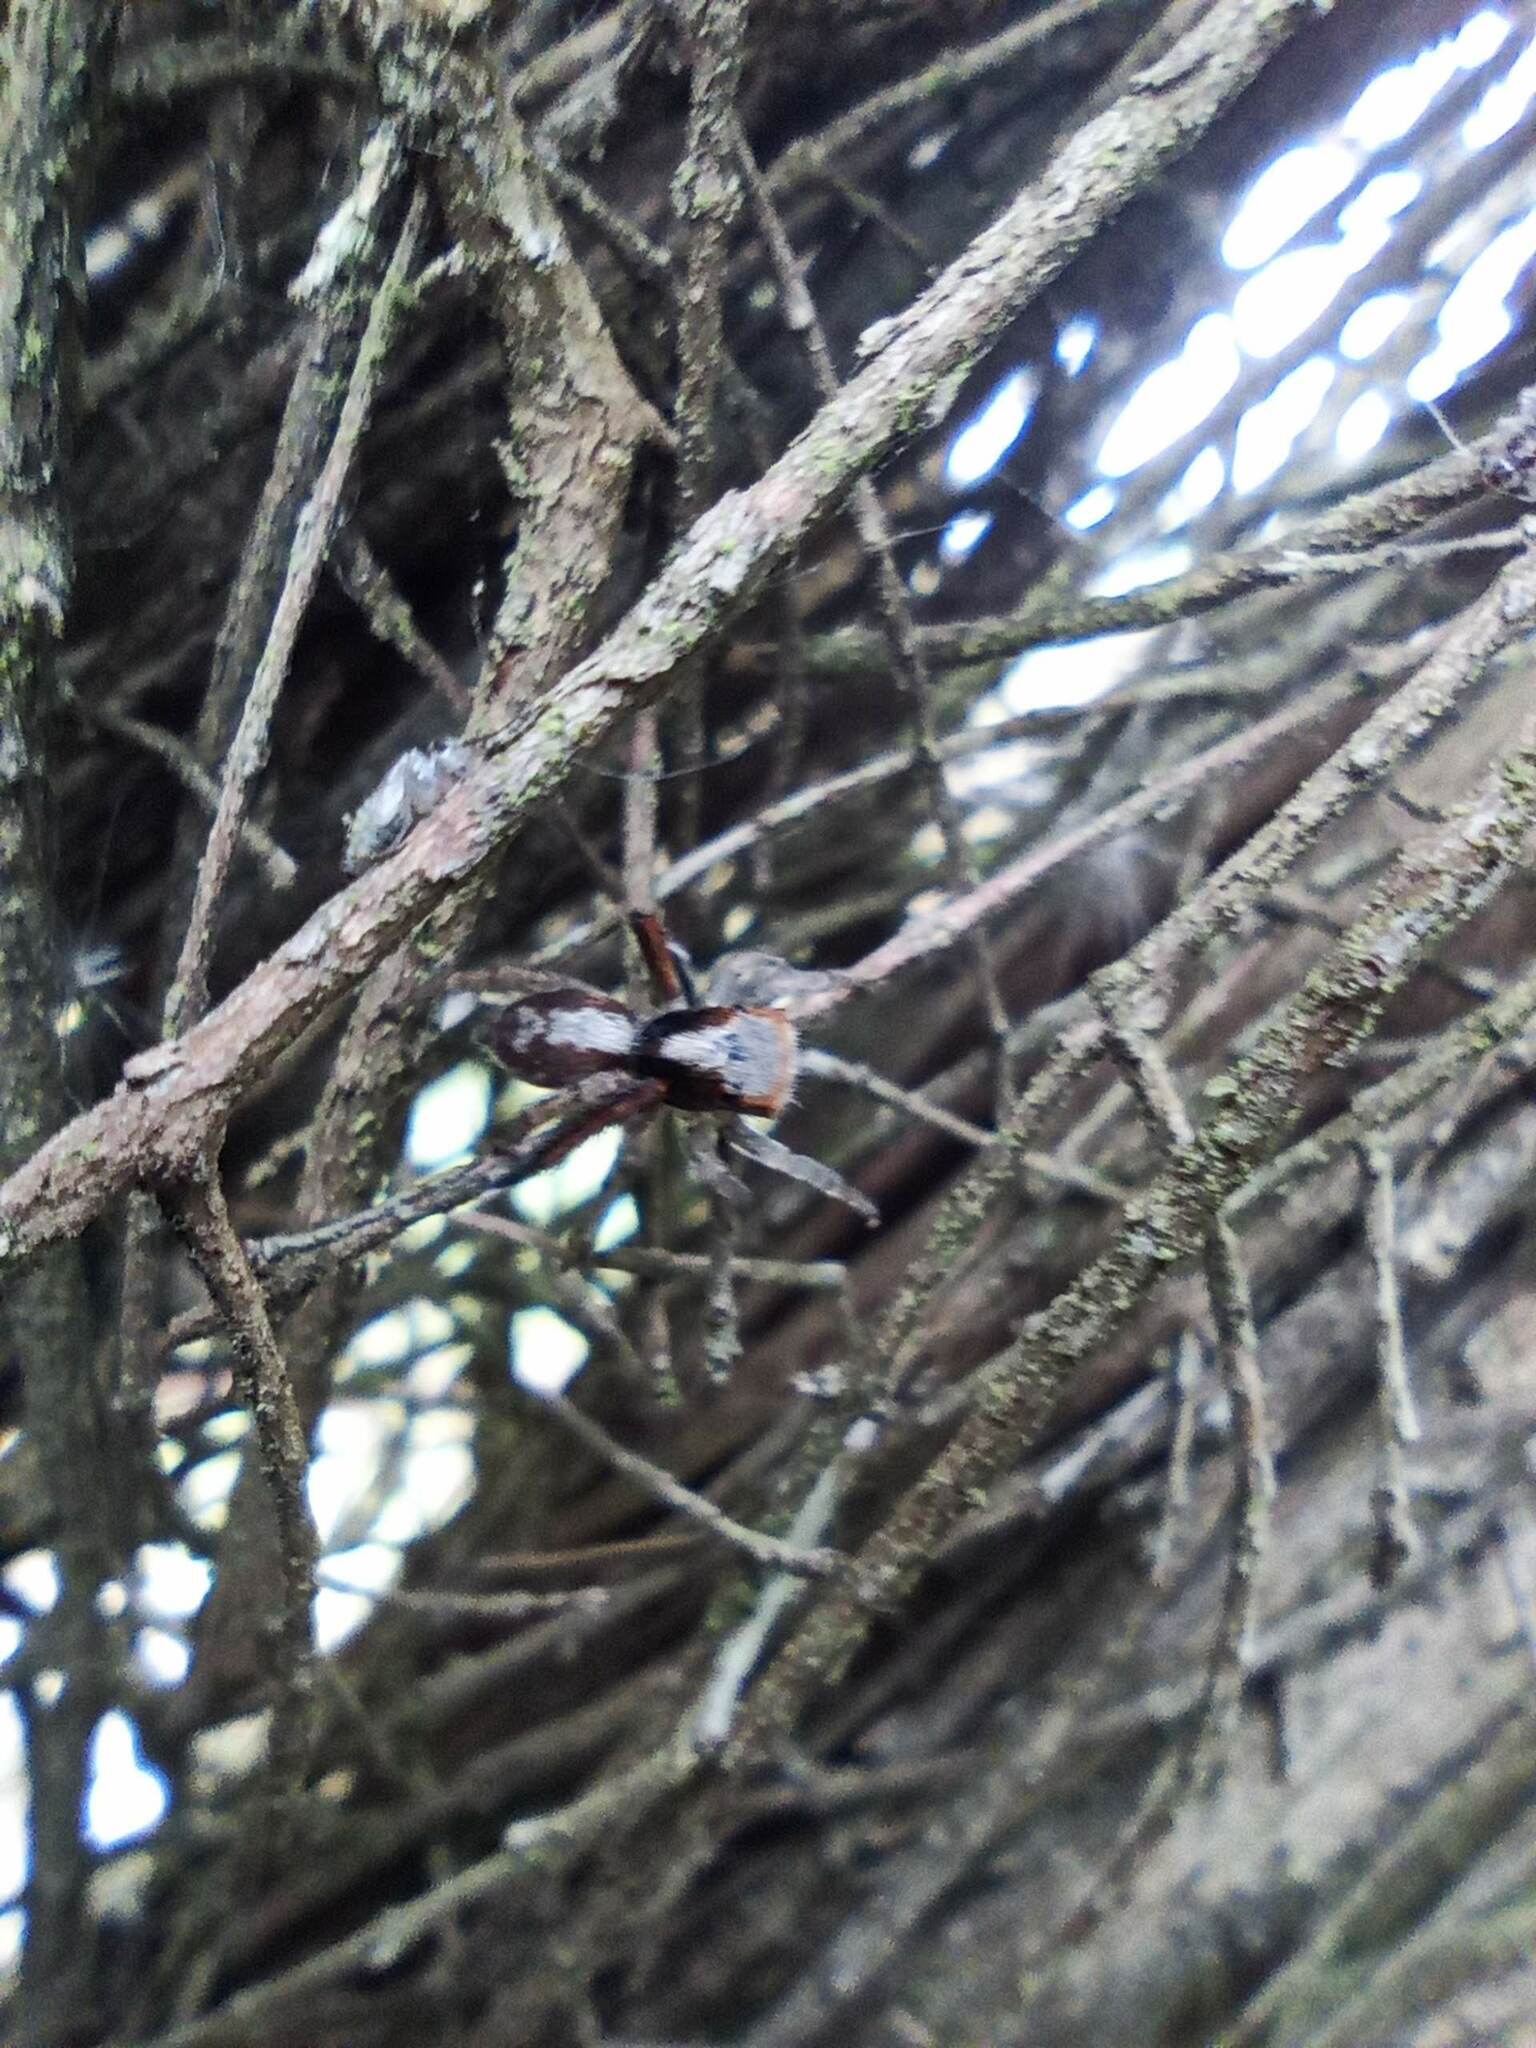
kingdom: Animalia
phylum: Arthropoda
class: Arachnida
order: Araneae
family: Salticidae
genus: Saitis
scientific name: Saitis barbipes
